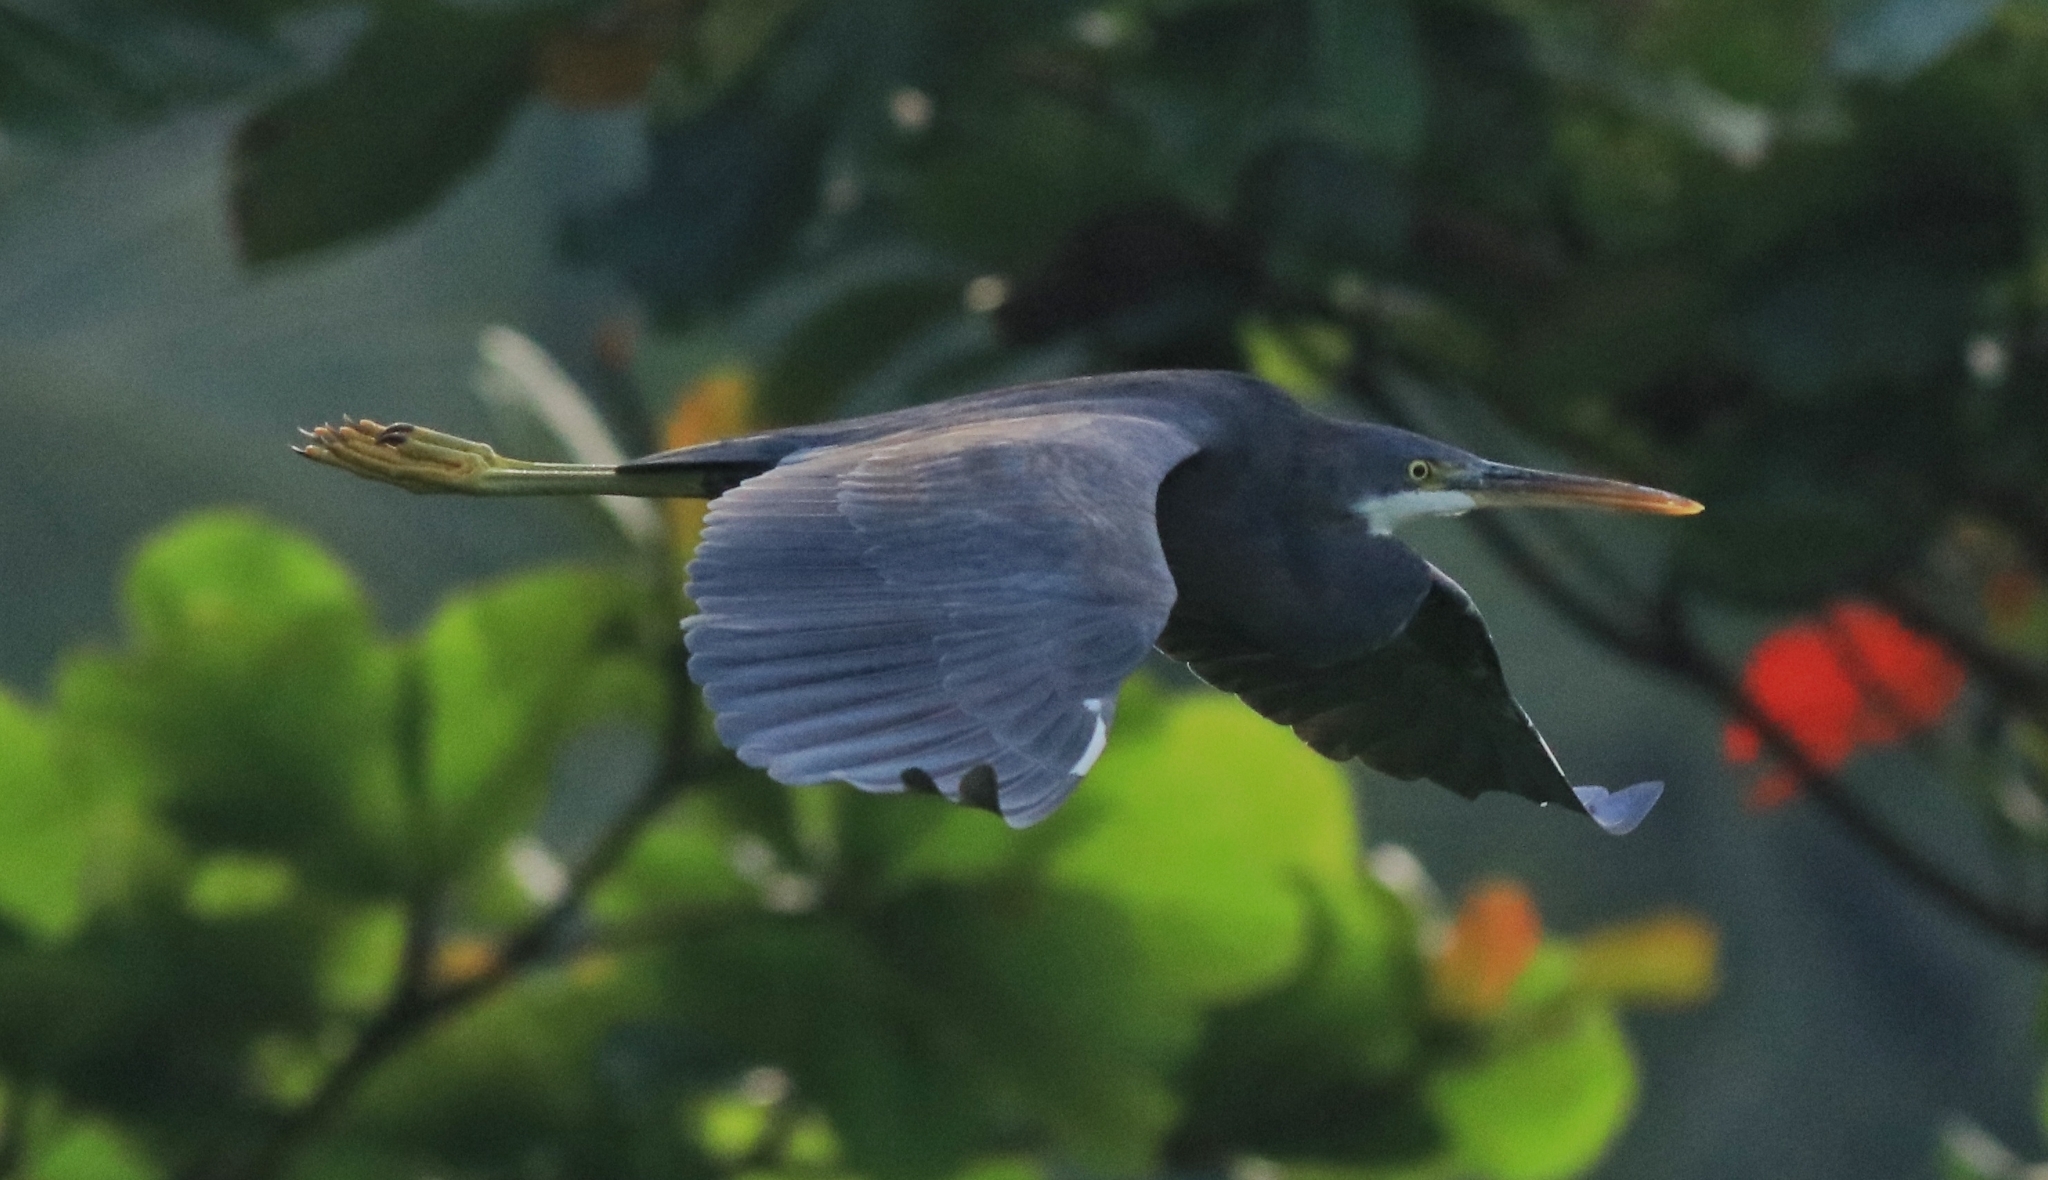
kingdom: Animalia
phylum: Chordata
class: Aves
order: Pelecaniformes
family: Ardeidae
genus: Egretta
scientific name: Egretta gularis
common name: Western reef-heron
